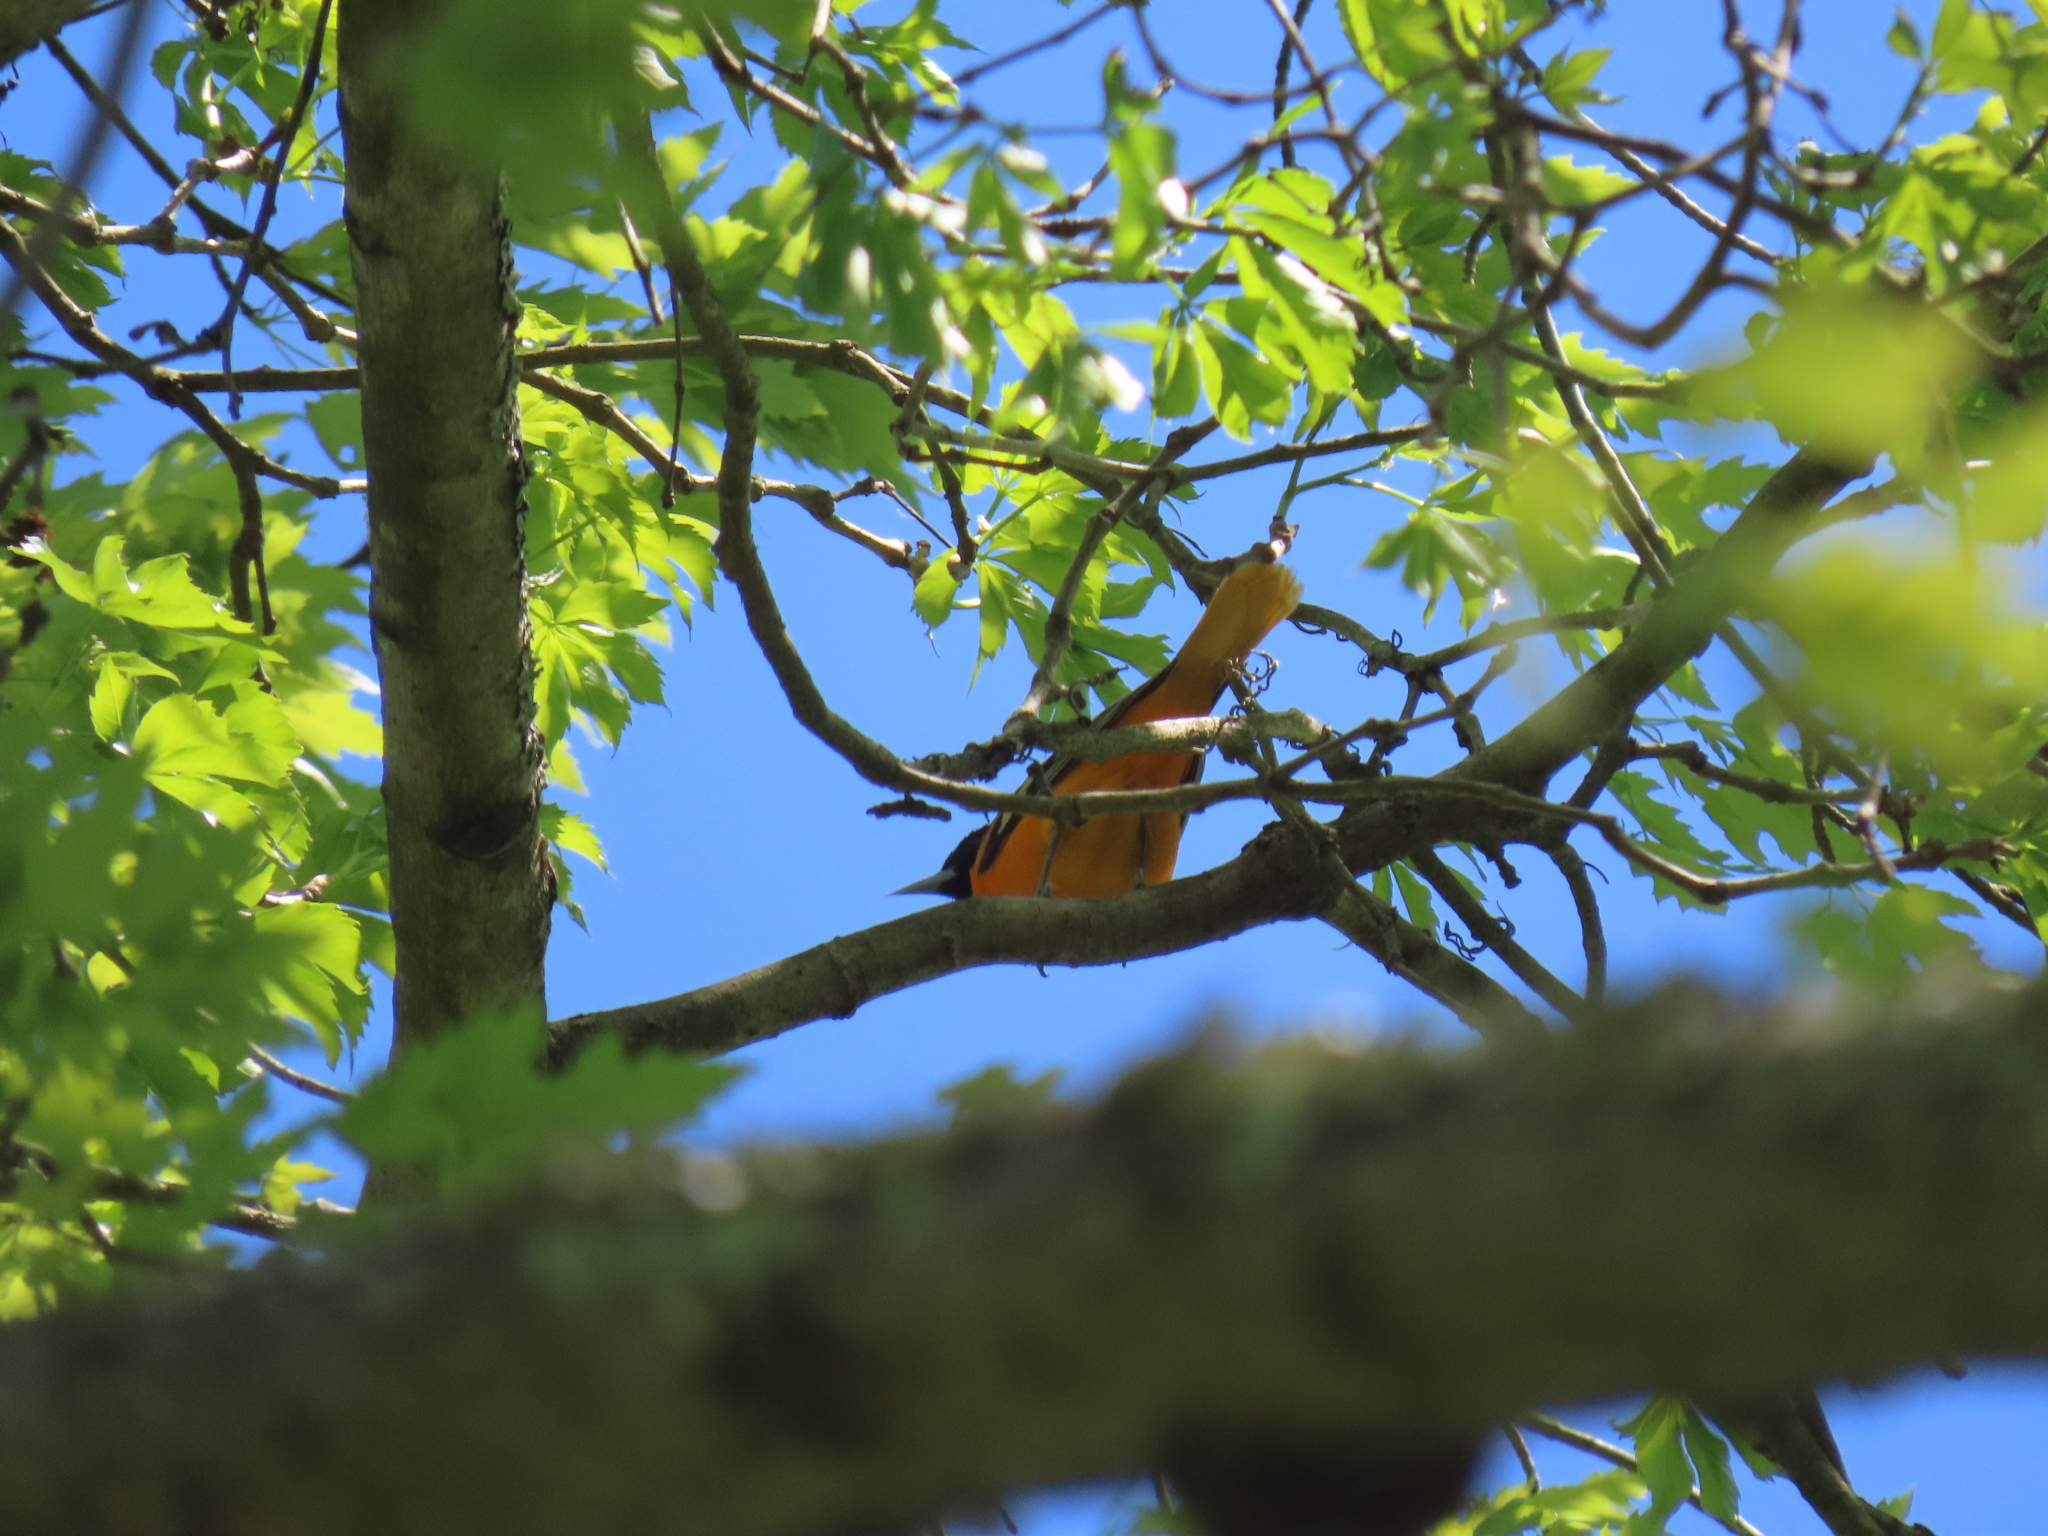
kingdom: Animalia
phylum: Chordata
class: Aves
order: Passeriformes
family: Icteridae
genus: Icterus
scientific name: Icterus galbula
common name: Baltimore oriole
